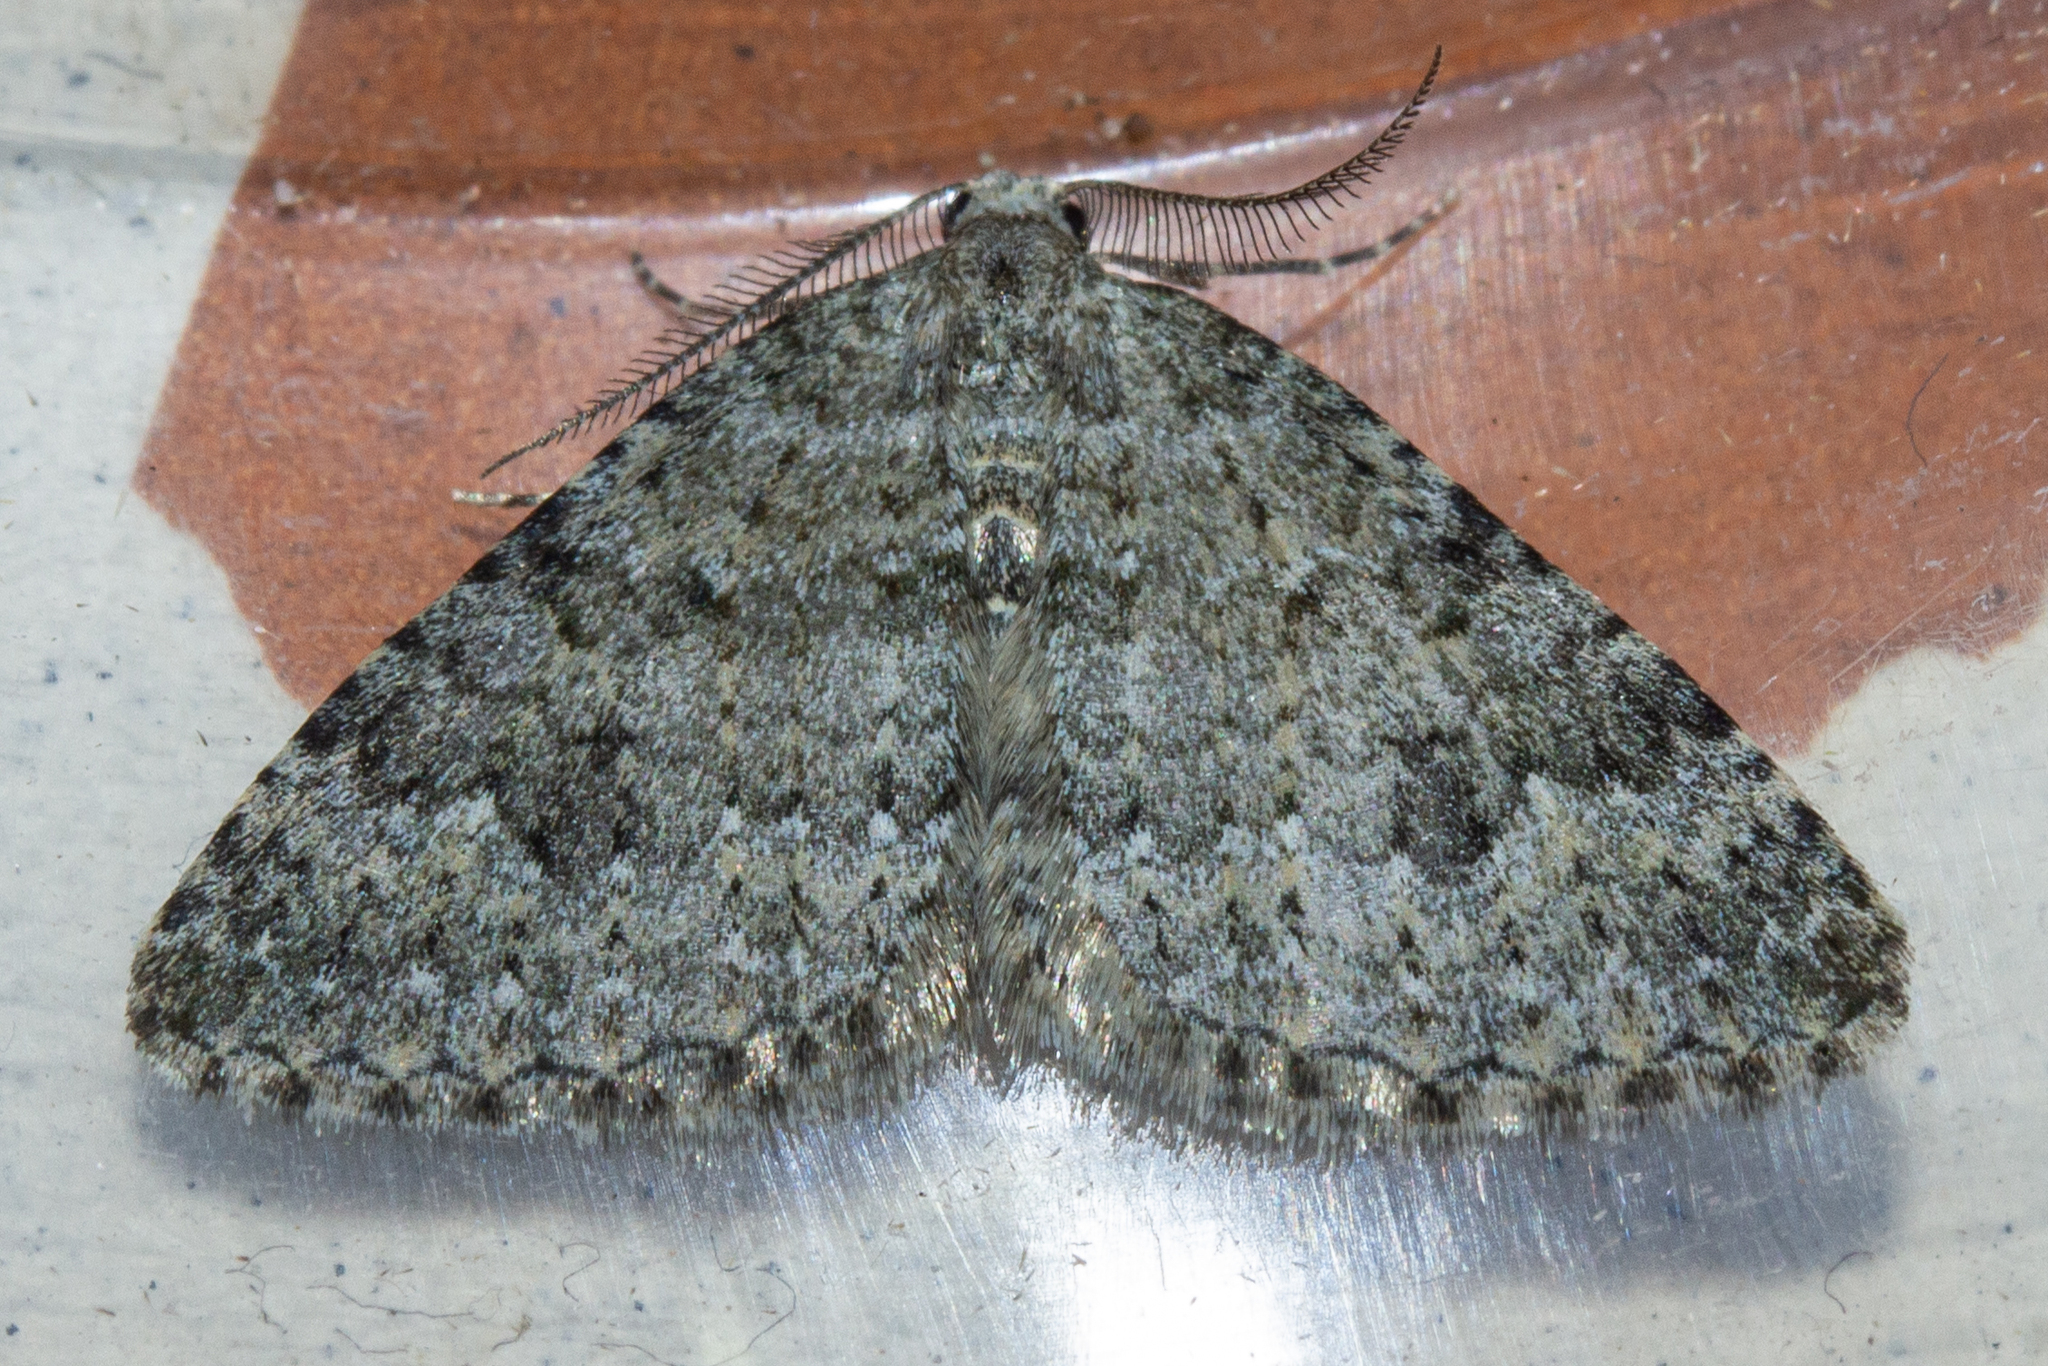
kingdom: Animalia
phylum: Arthropoda
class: Insecta
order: Lepidoptera
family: Geometridae
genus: Helastia
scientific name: Helastia corcularia
